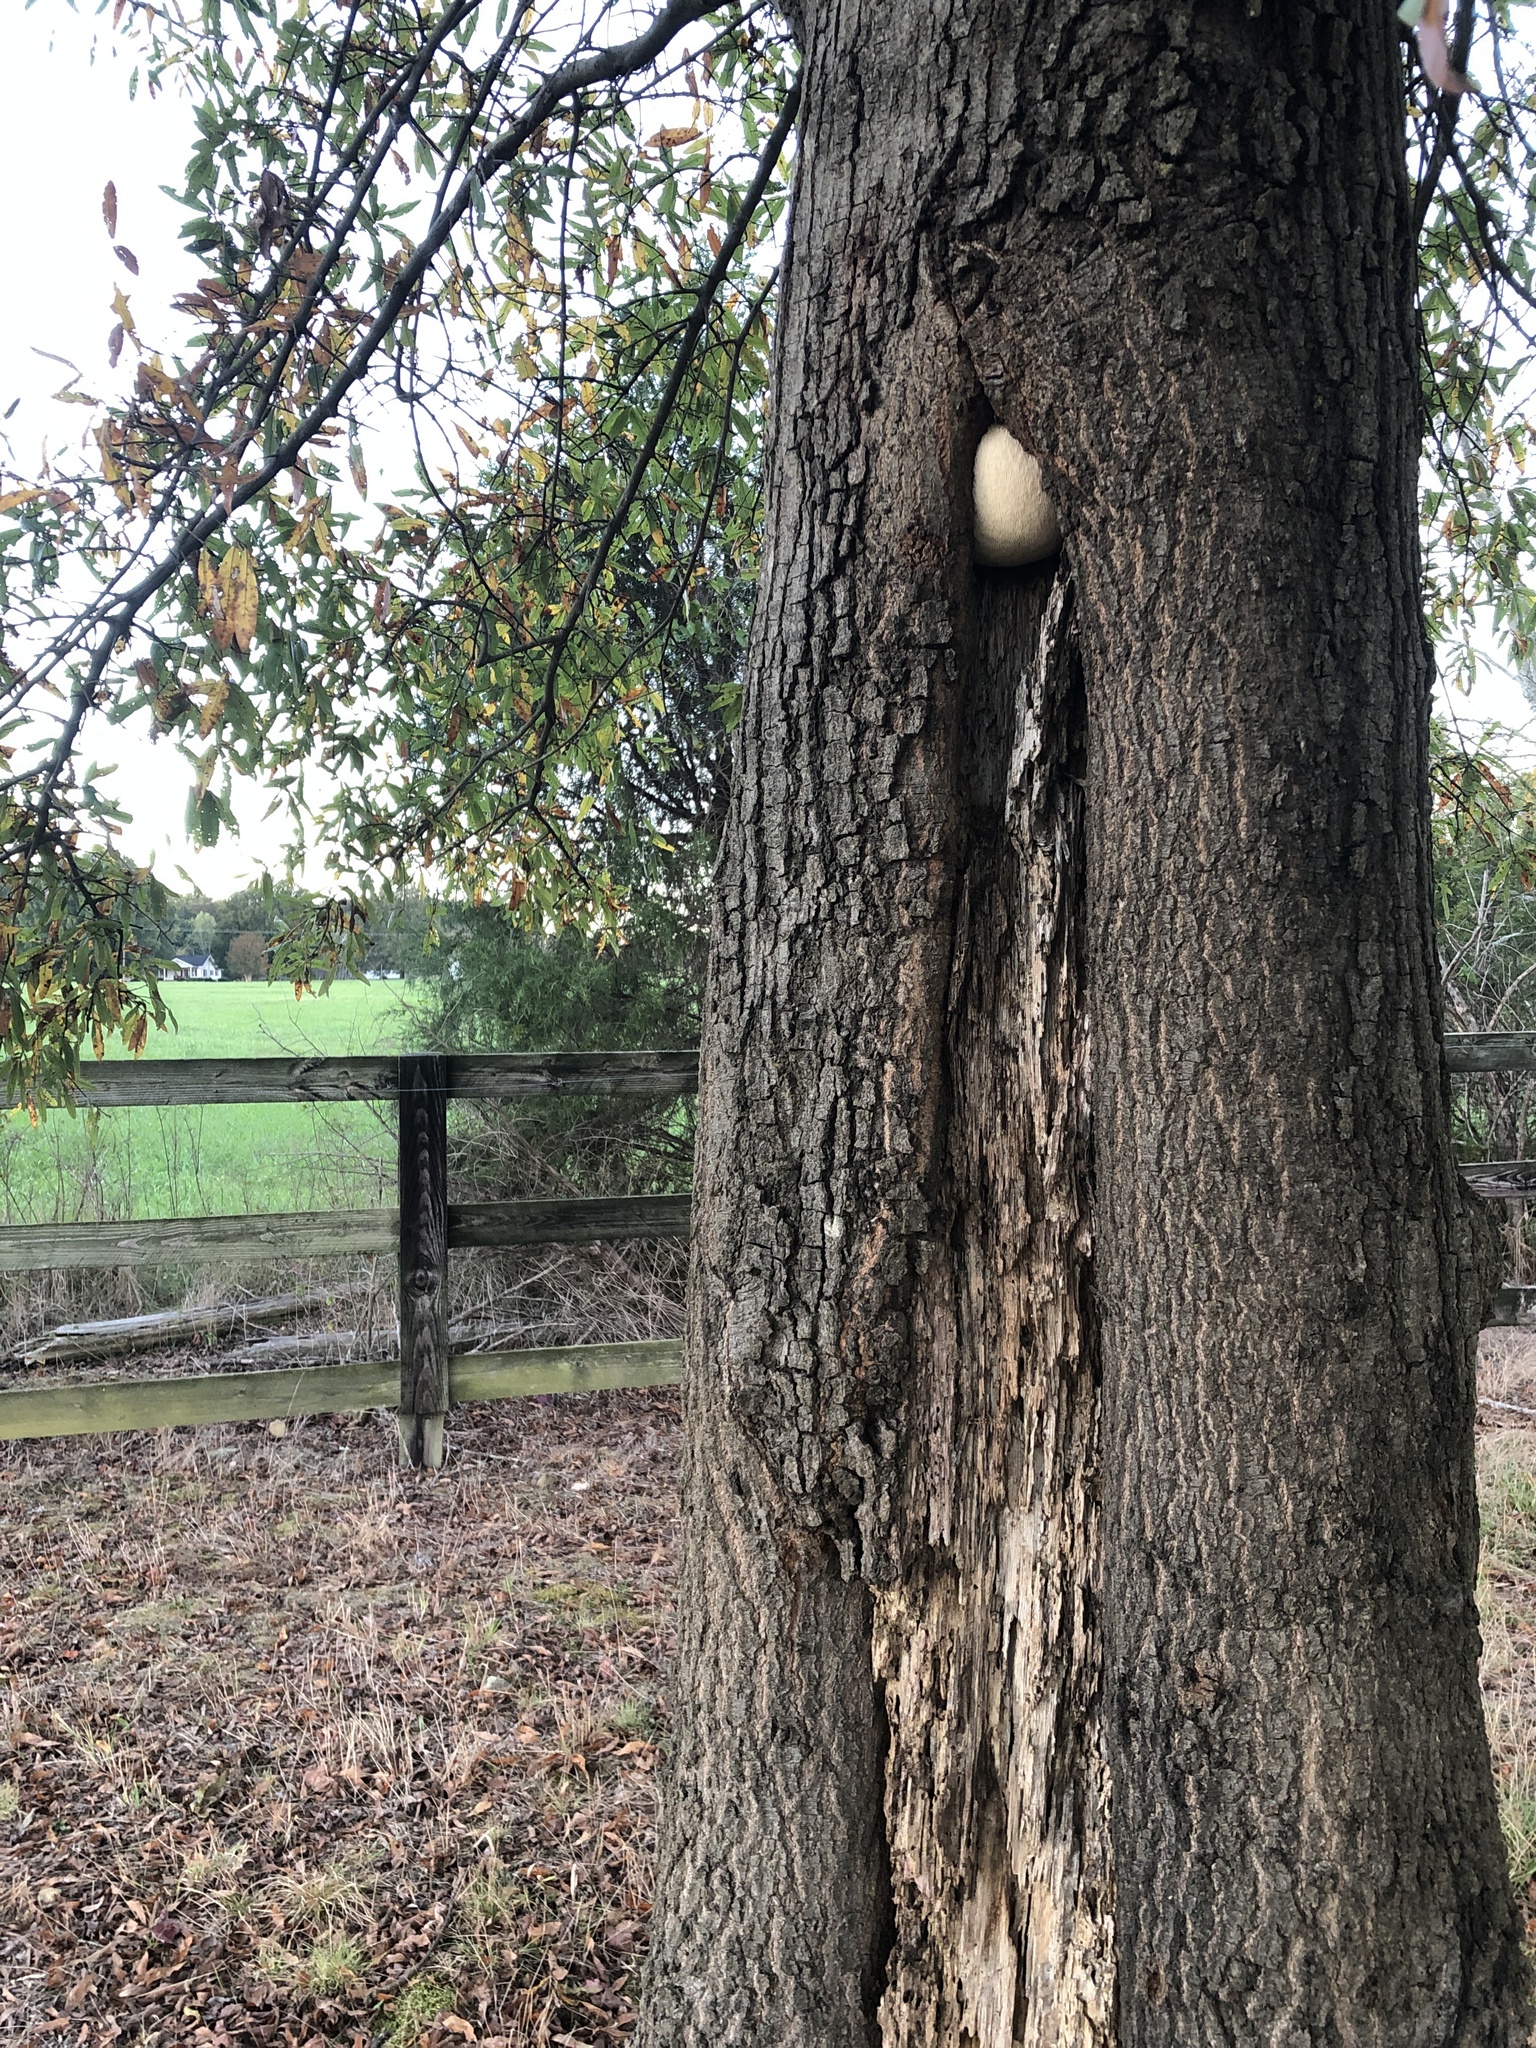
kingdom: Fungi
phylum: Basidiomycota
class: Agaricomycetes
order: Russulales
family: Hericiaceae
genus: Hericium
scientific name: Hericium erinaceus
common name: Bearded tooth
